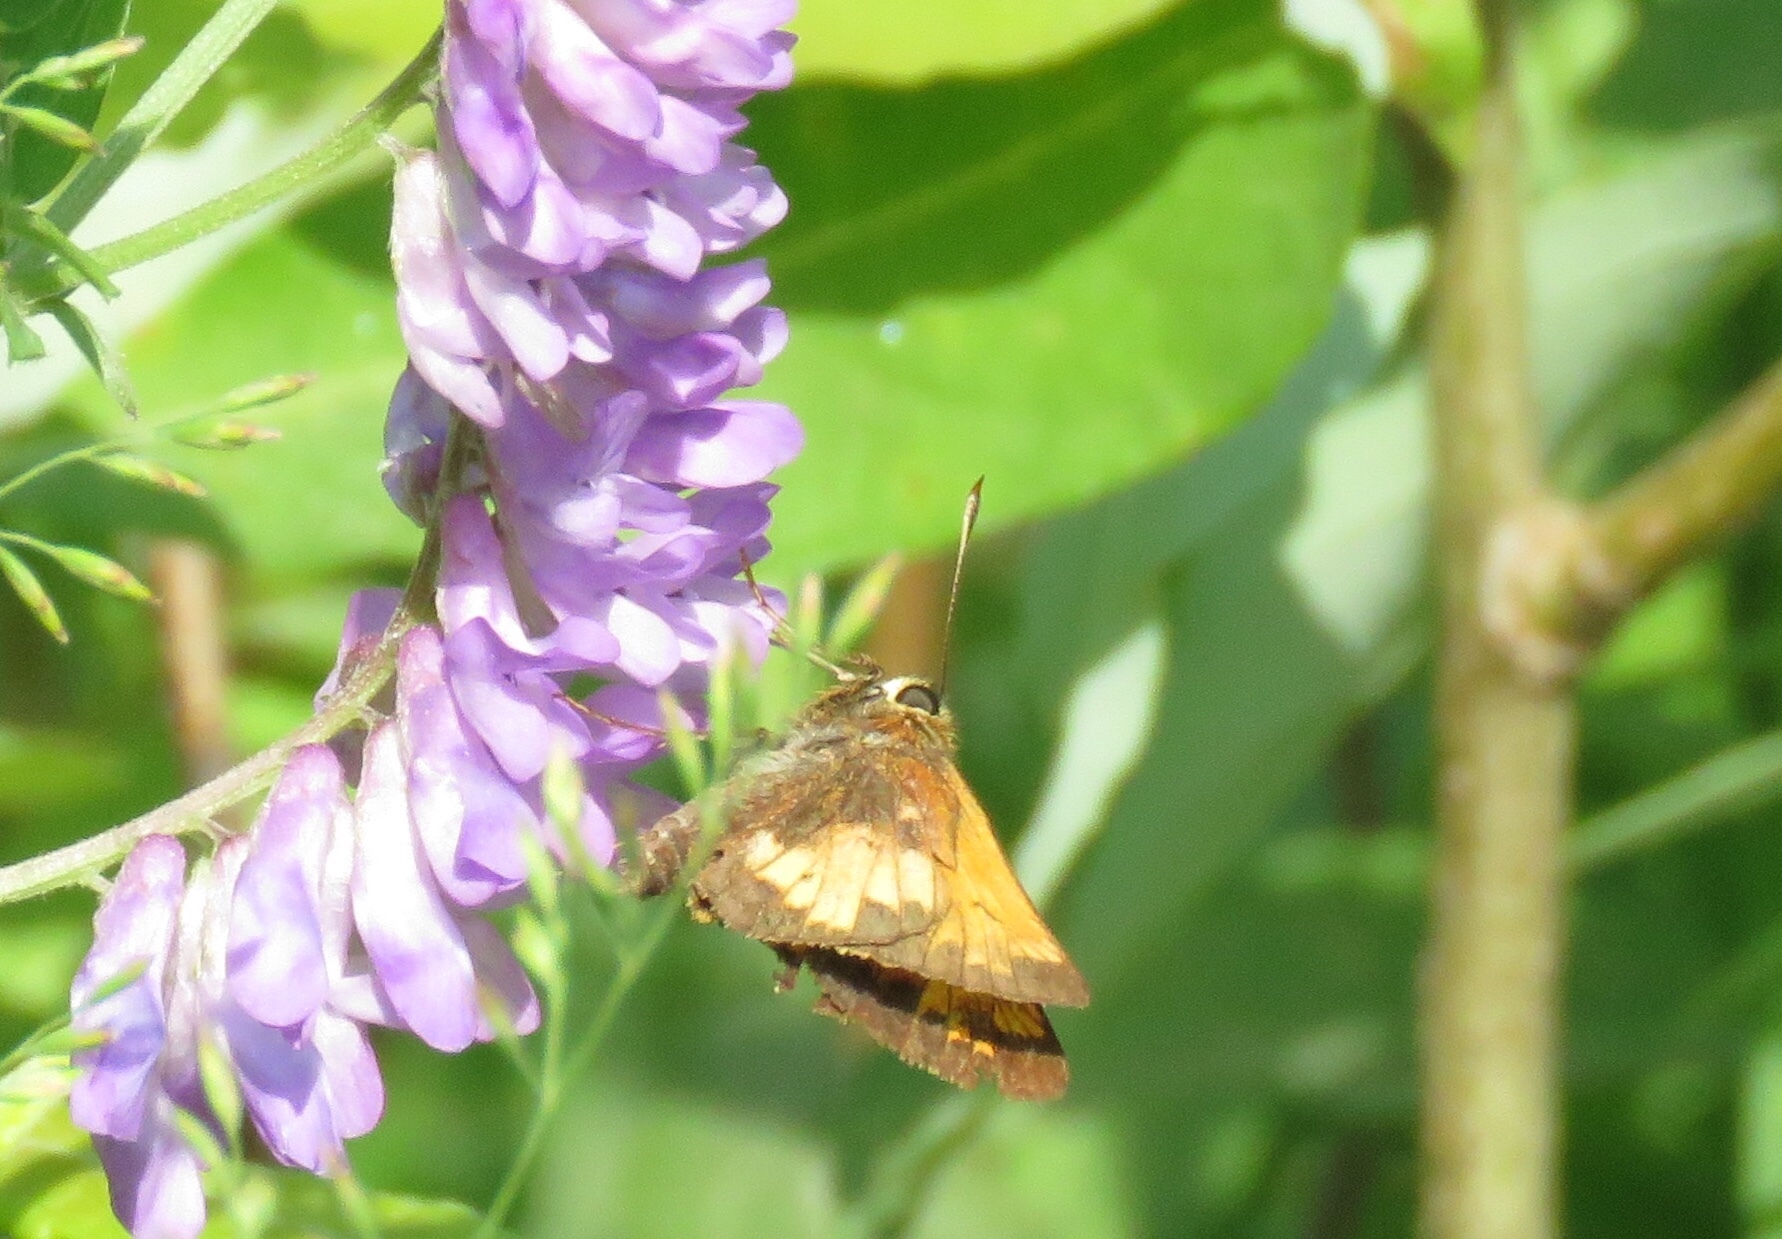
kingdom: Animalia
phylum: Arthropoda
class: Insecta
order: Lepidoptera
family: Hesperiidae
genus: Lon
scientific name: Lon hobomok
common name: Hobomok skipper
